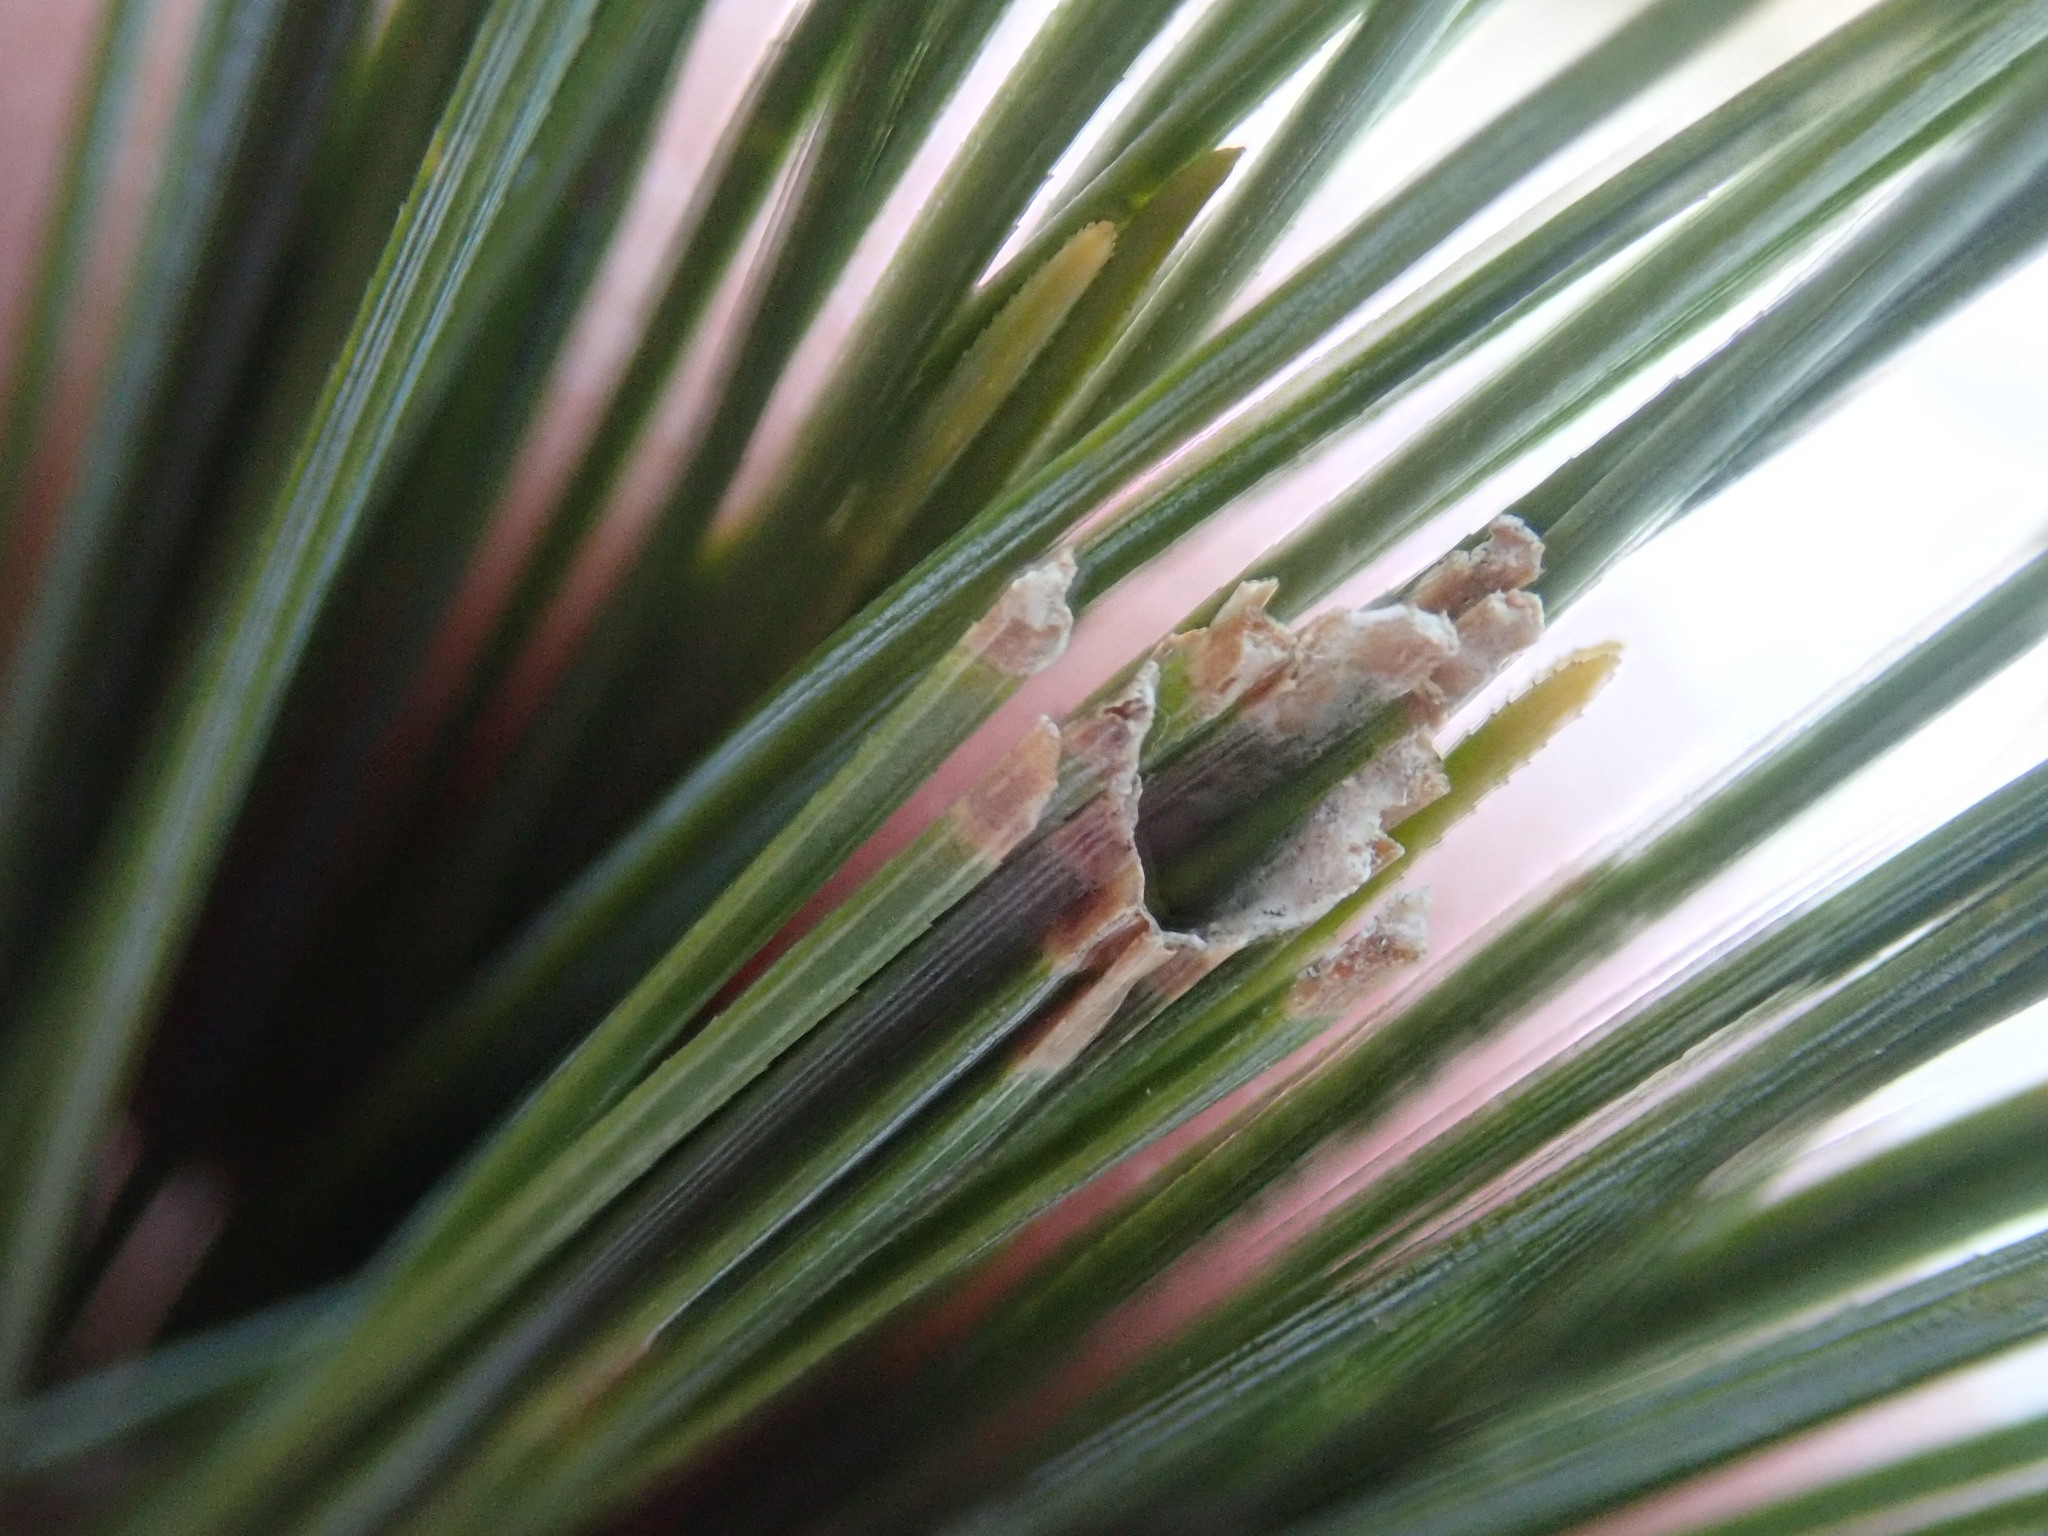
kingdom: Animalia
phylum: Arthropoda
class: Insecta
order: Lepidoptera
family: Tortricidae
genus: Argyrotaenia
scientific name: Argyrotaenia pinatubana
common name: Pine tube moth
